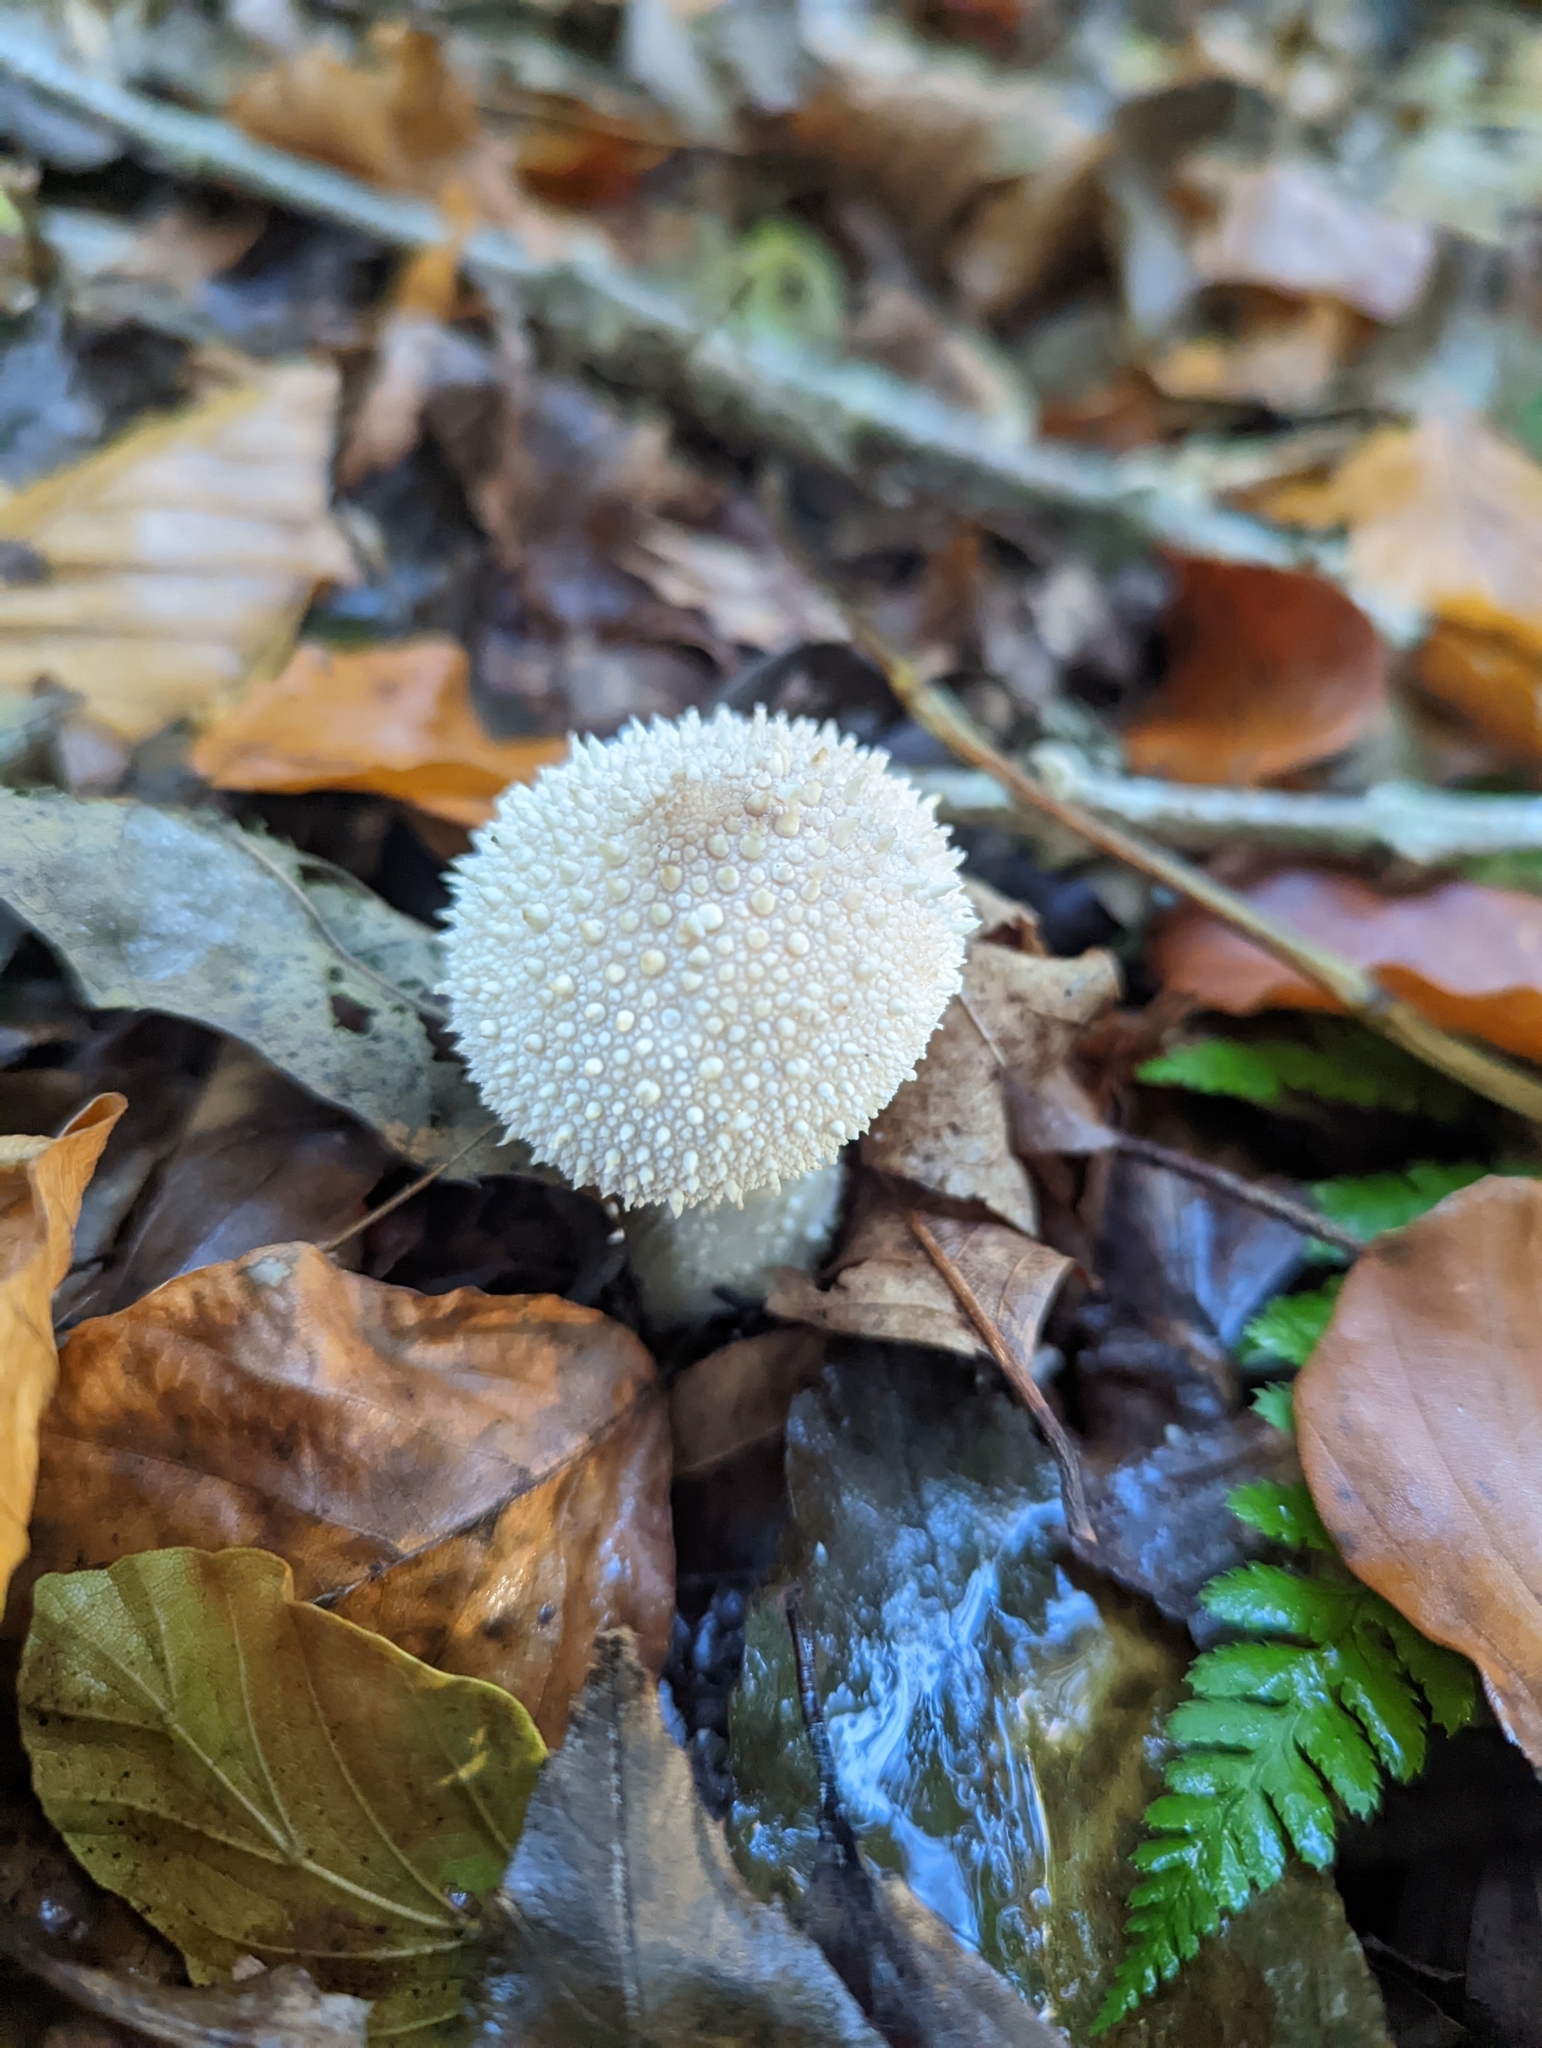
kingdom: Fungi
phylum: Basidiomycota
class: Agaricomycetes
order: Agaricales
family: Lycoperdaceae
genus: Lycoperdon
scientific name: Lycoperdon perlatum
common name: Common puffball
